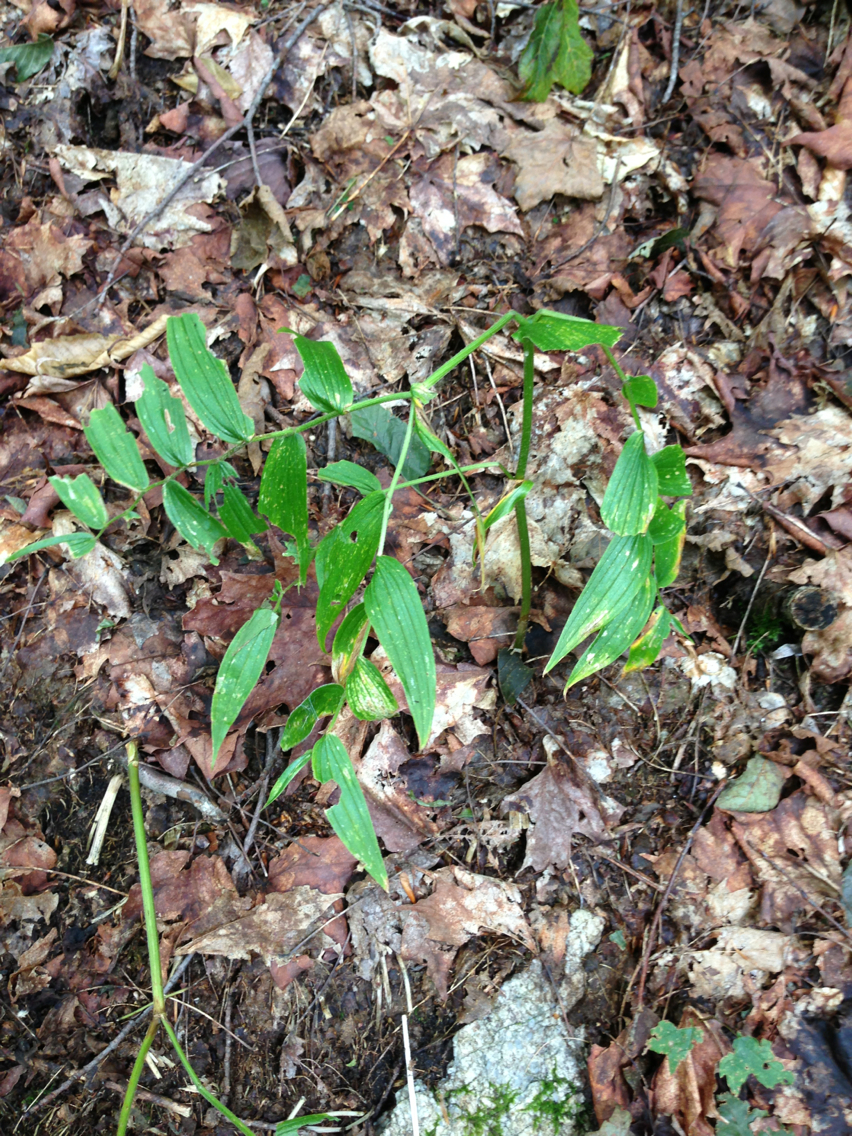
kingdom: Plantae
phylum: Tracheophyta
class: Liliopsida
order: Liliales
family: Liliaceae
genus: Streptopus
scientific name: Streptopus lanceolatus
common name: Rose mandarin
